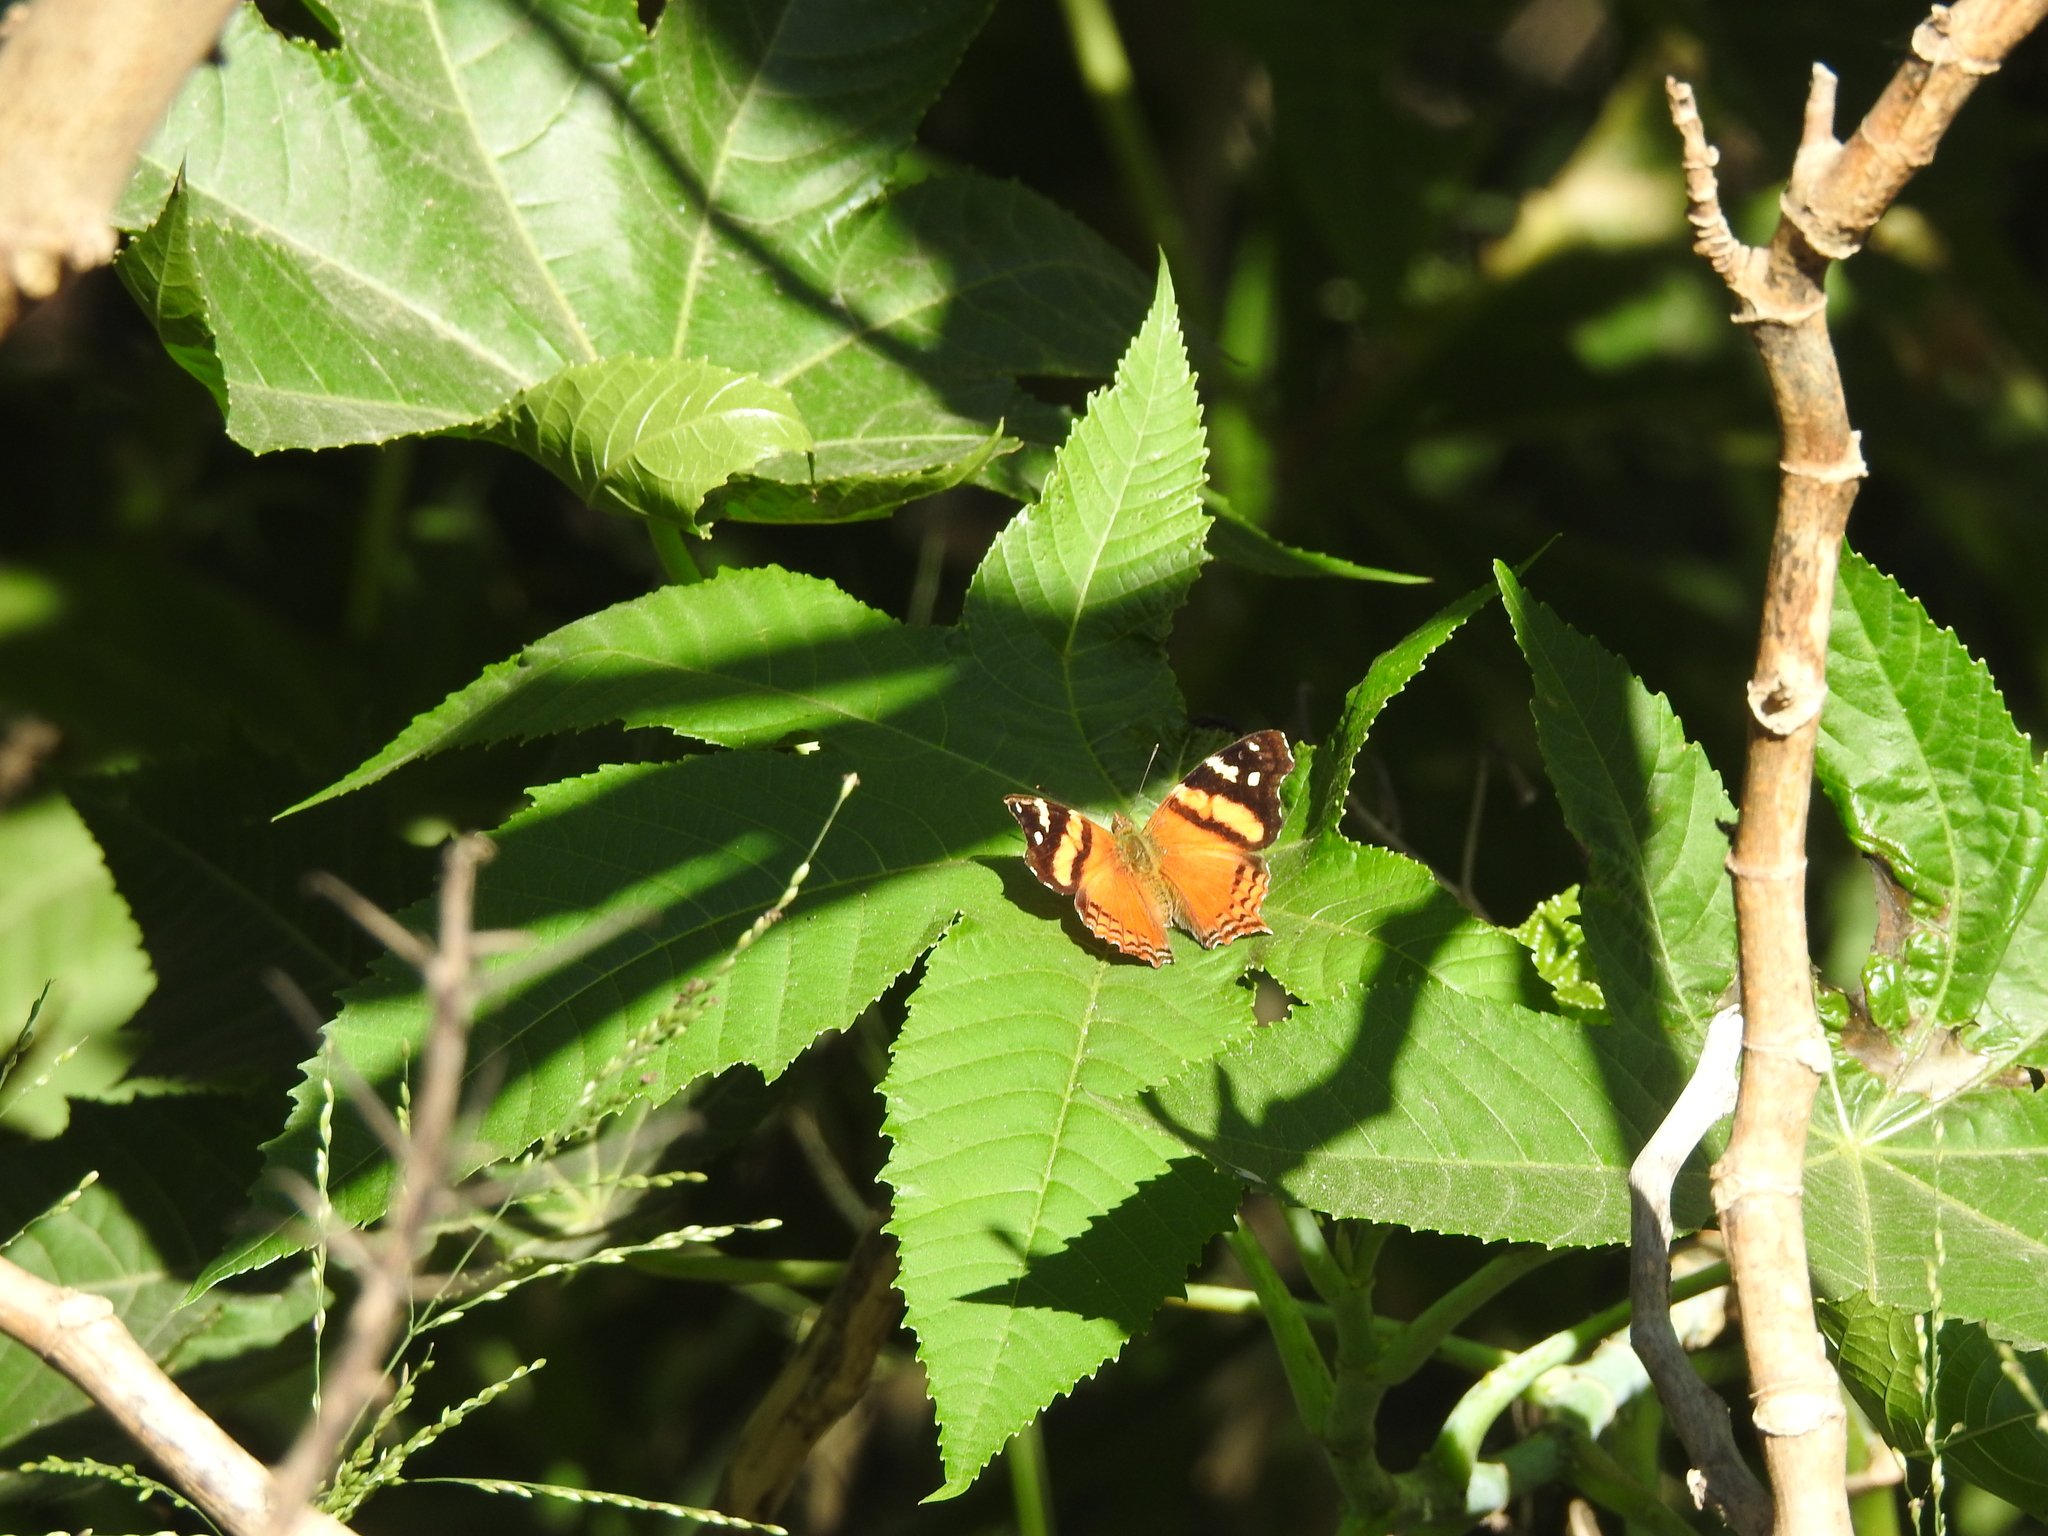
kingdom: Animalia
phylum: Arthropoda
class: Insecta
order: Lepidoptera
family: Nymphalidae
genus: Hypanartia
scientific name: Hypanartia bella
